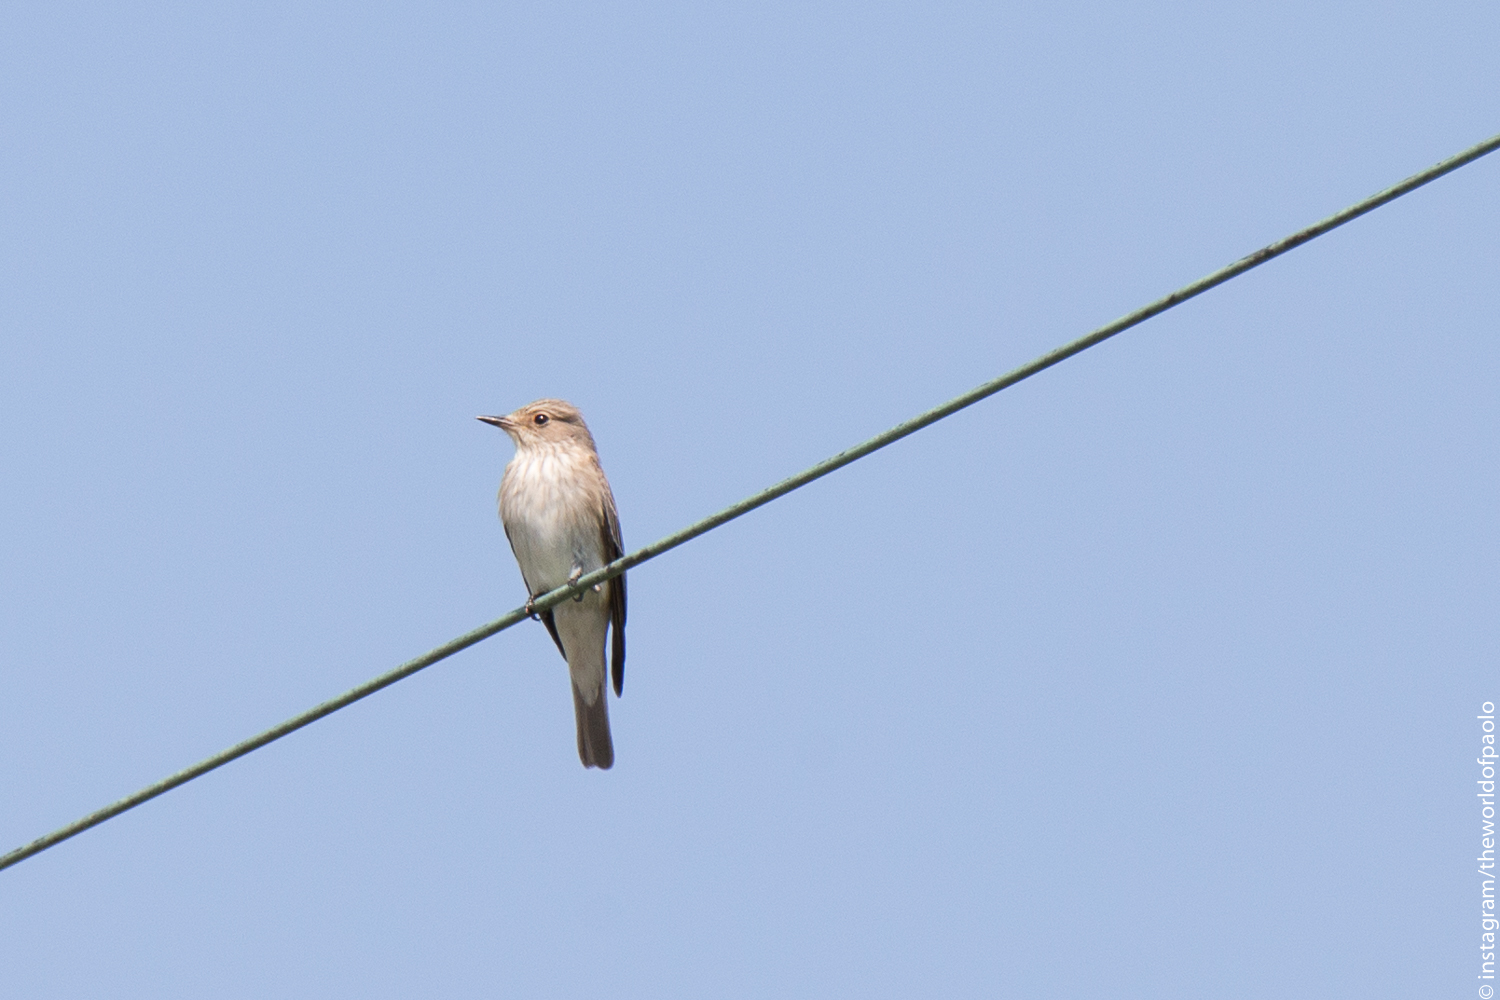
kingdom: Animalia
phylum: Chordata
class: Aves
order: Passeriformes
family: Muscicapidae
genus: Muscicapa
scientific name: Muscicapa striata
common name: Spotted flycatcher
